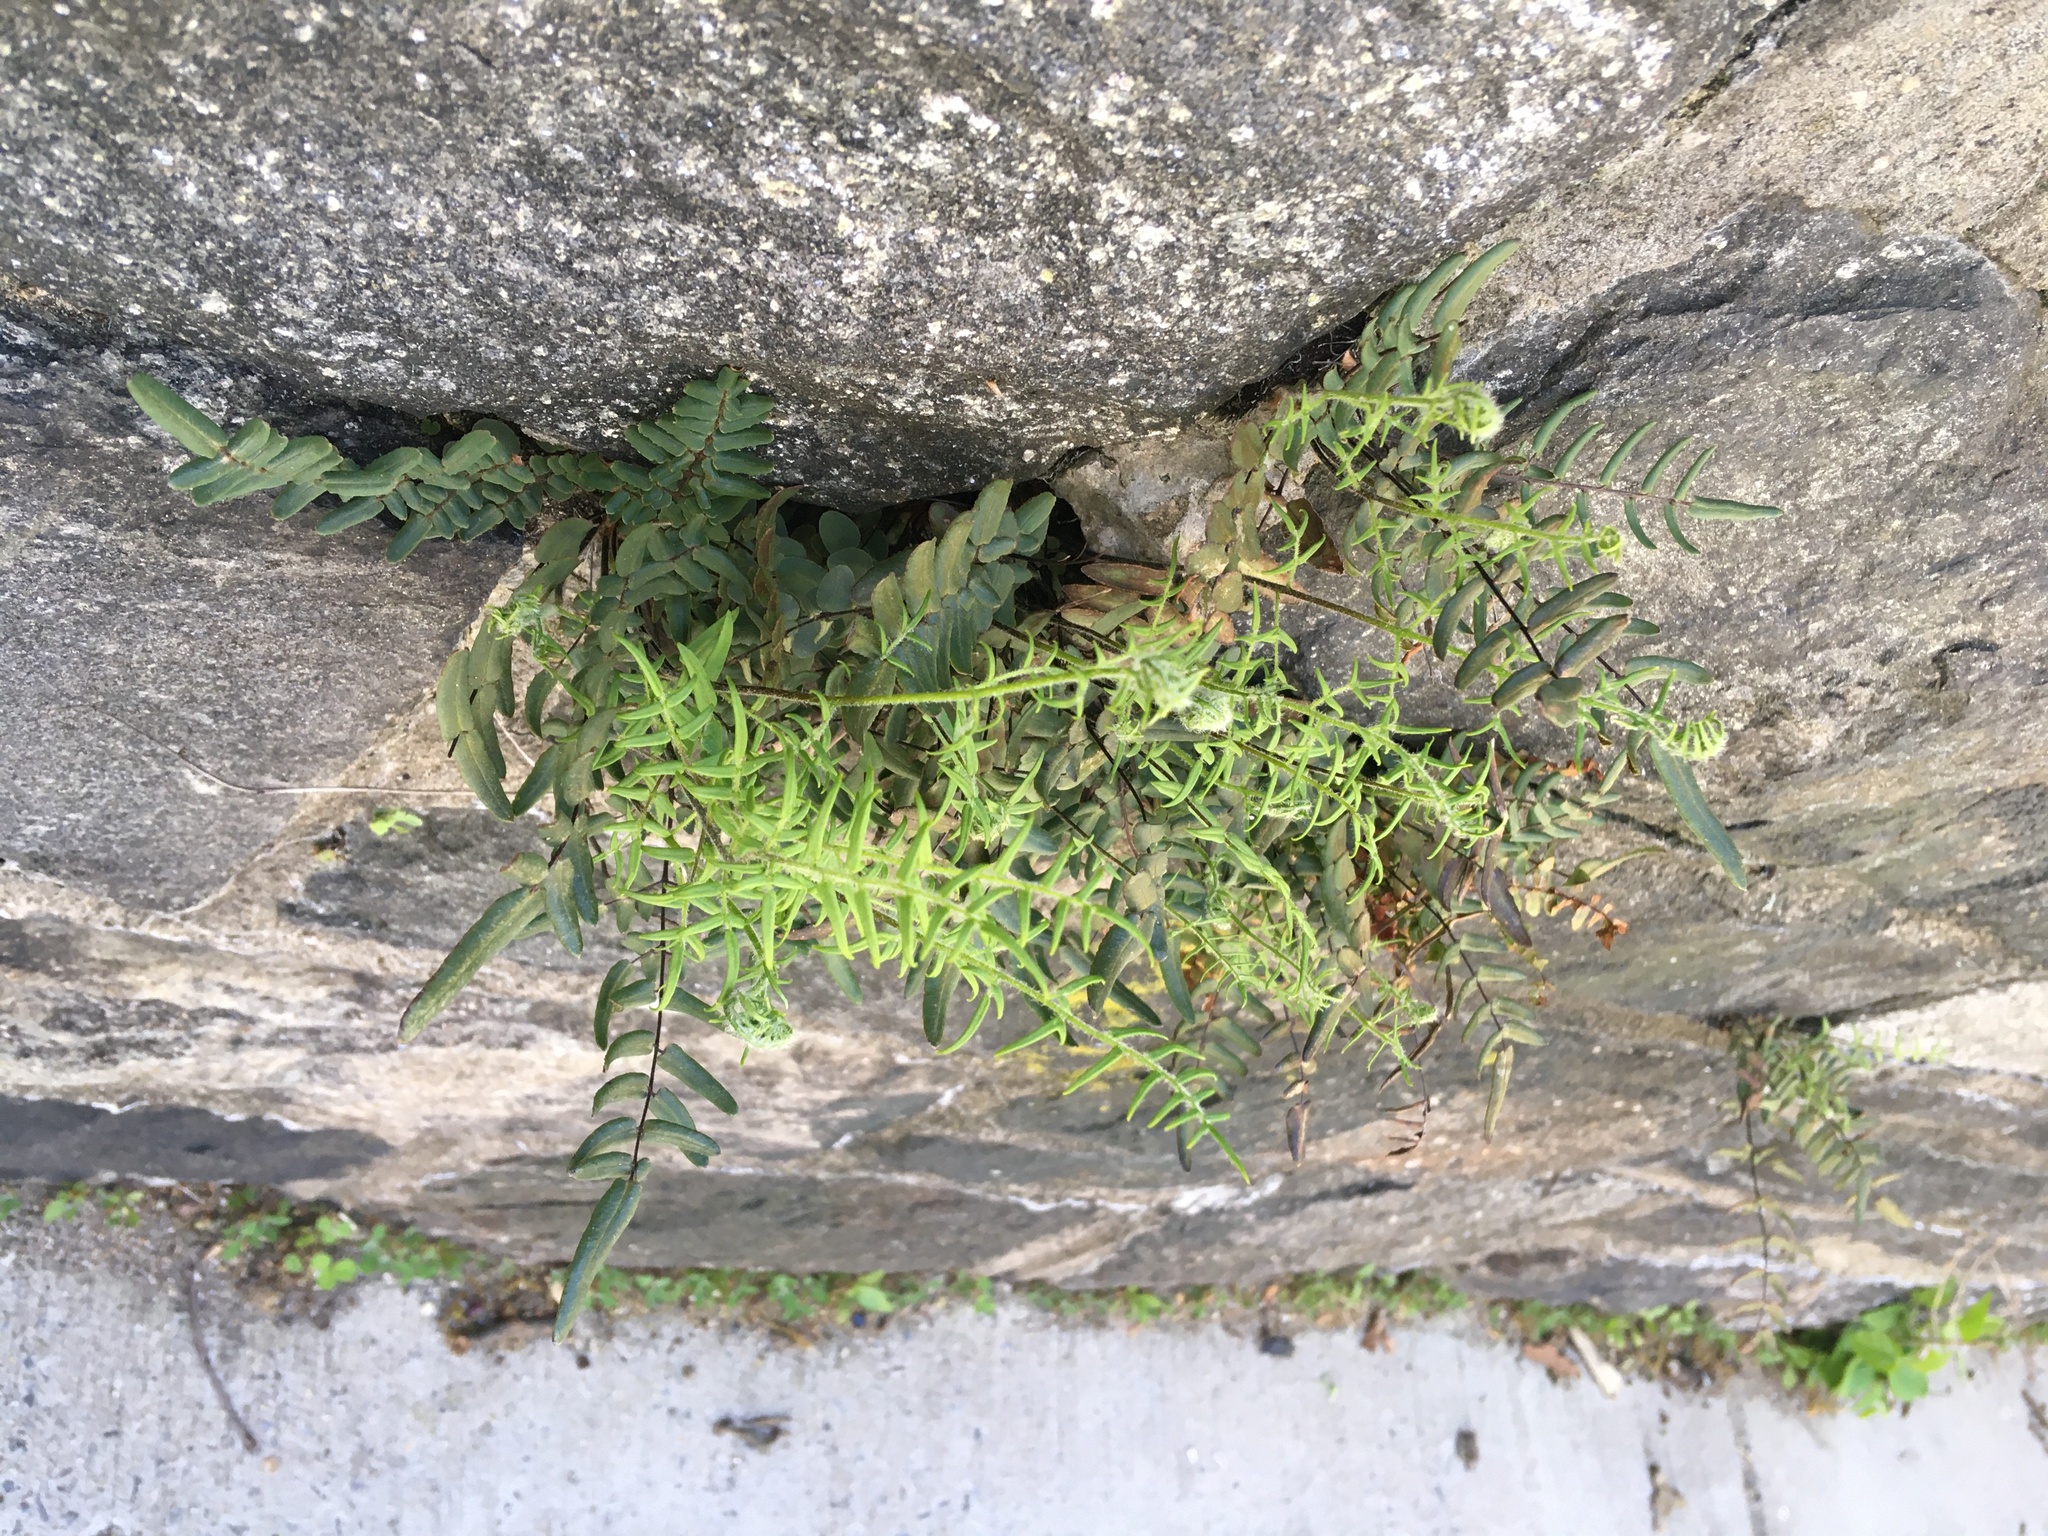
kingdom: Plantae
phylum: Tracheophyta
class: Polypodiopsida
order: Polypodiales
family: Pteridaceae
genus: Pellaea
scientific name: Pellaea atropurpurea
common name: Hairy cliffbrake
